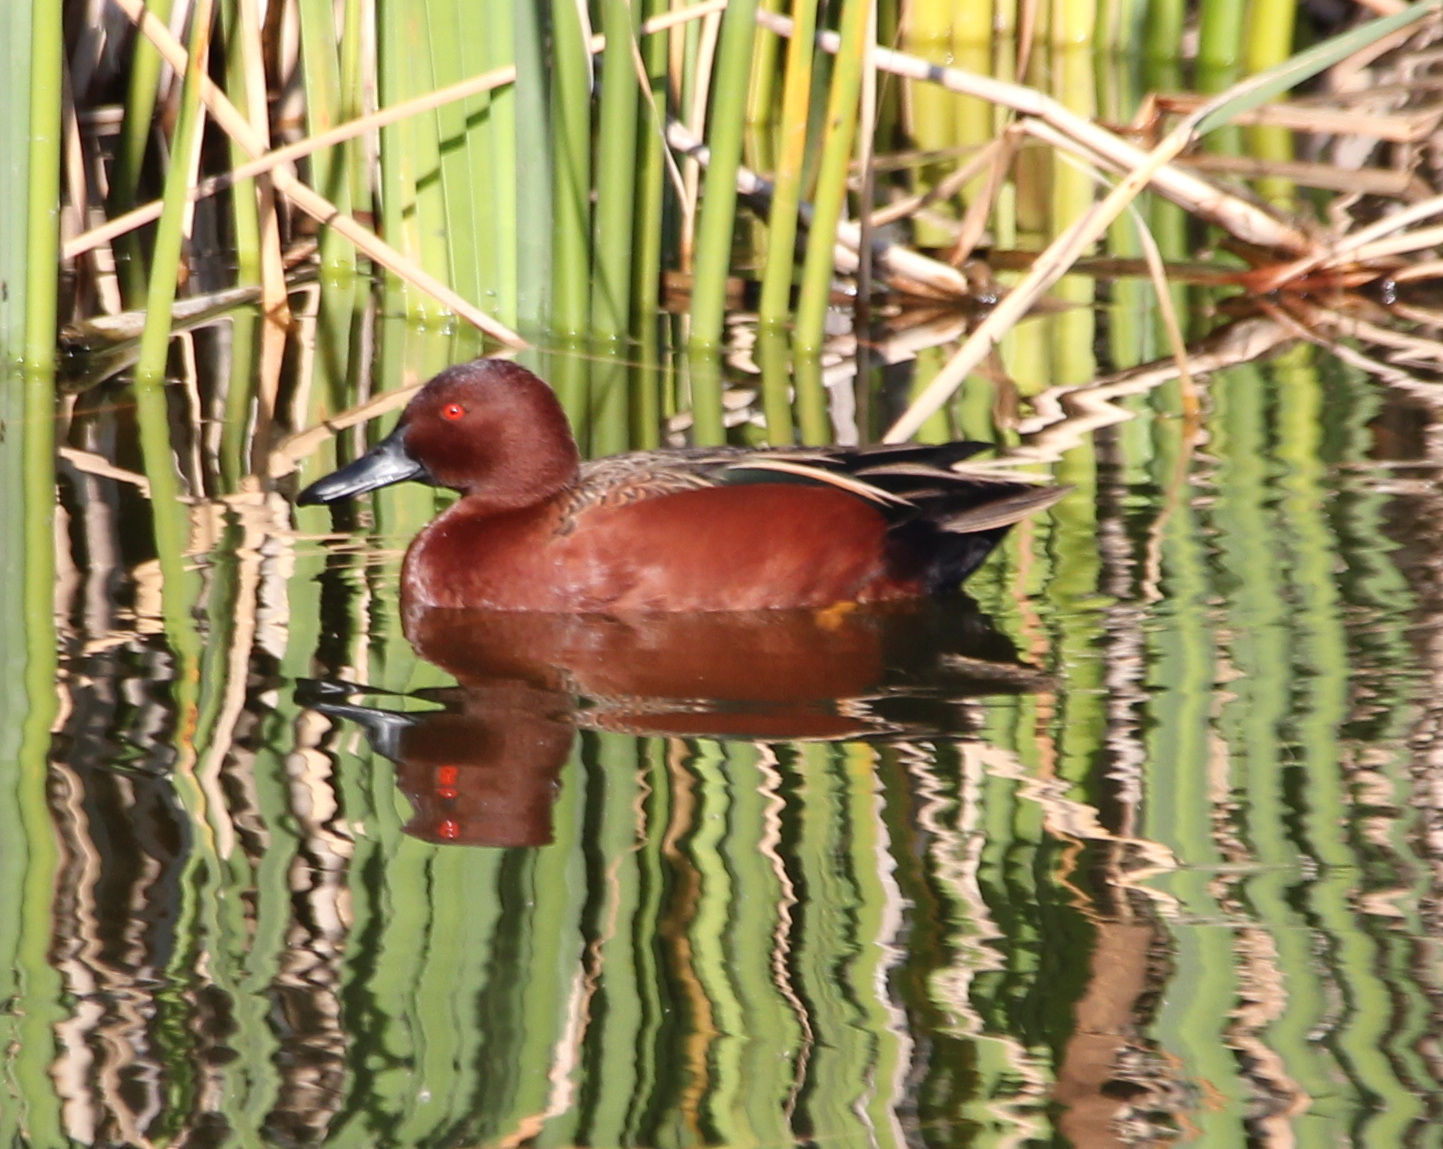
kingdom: Animalia
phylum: Chordata
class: Aves
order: Anseriformes
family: Anatidae
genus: Spatula
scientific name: Spatula cyanoptera
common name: Cinnamon teal
